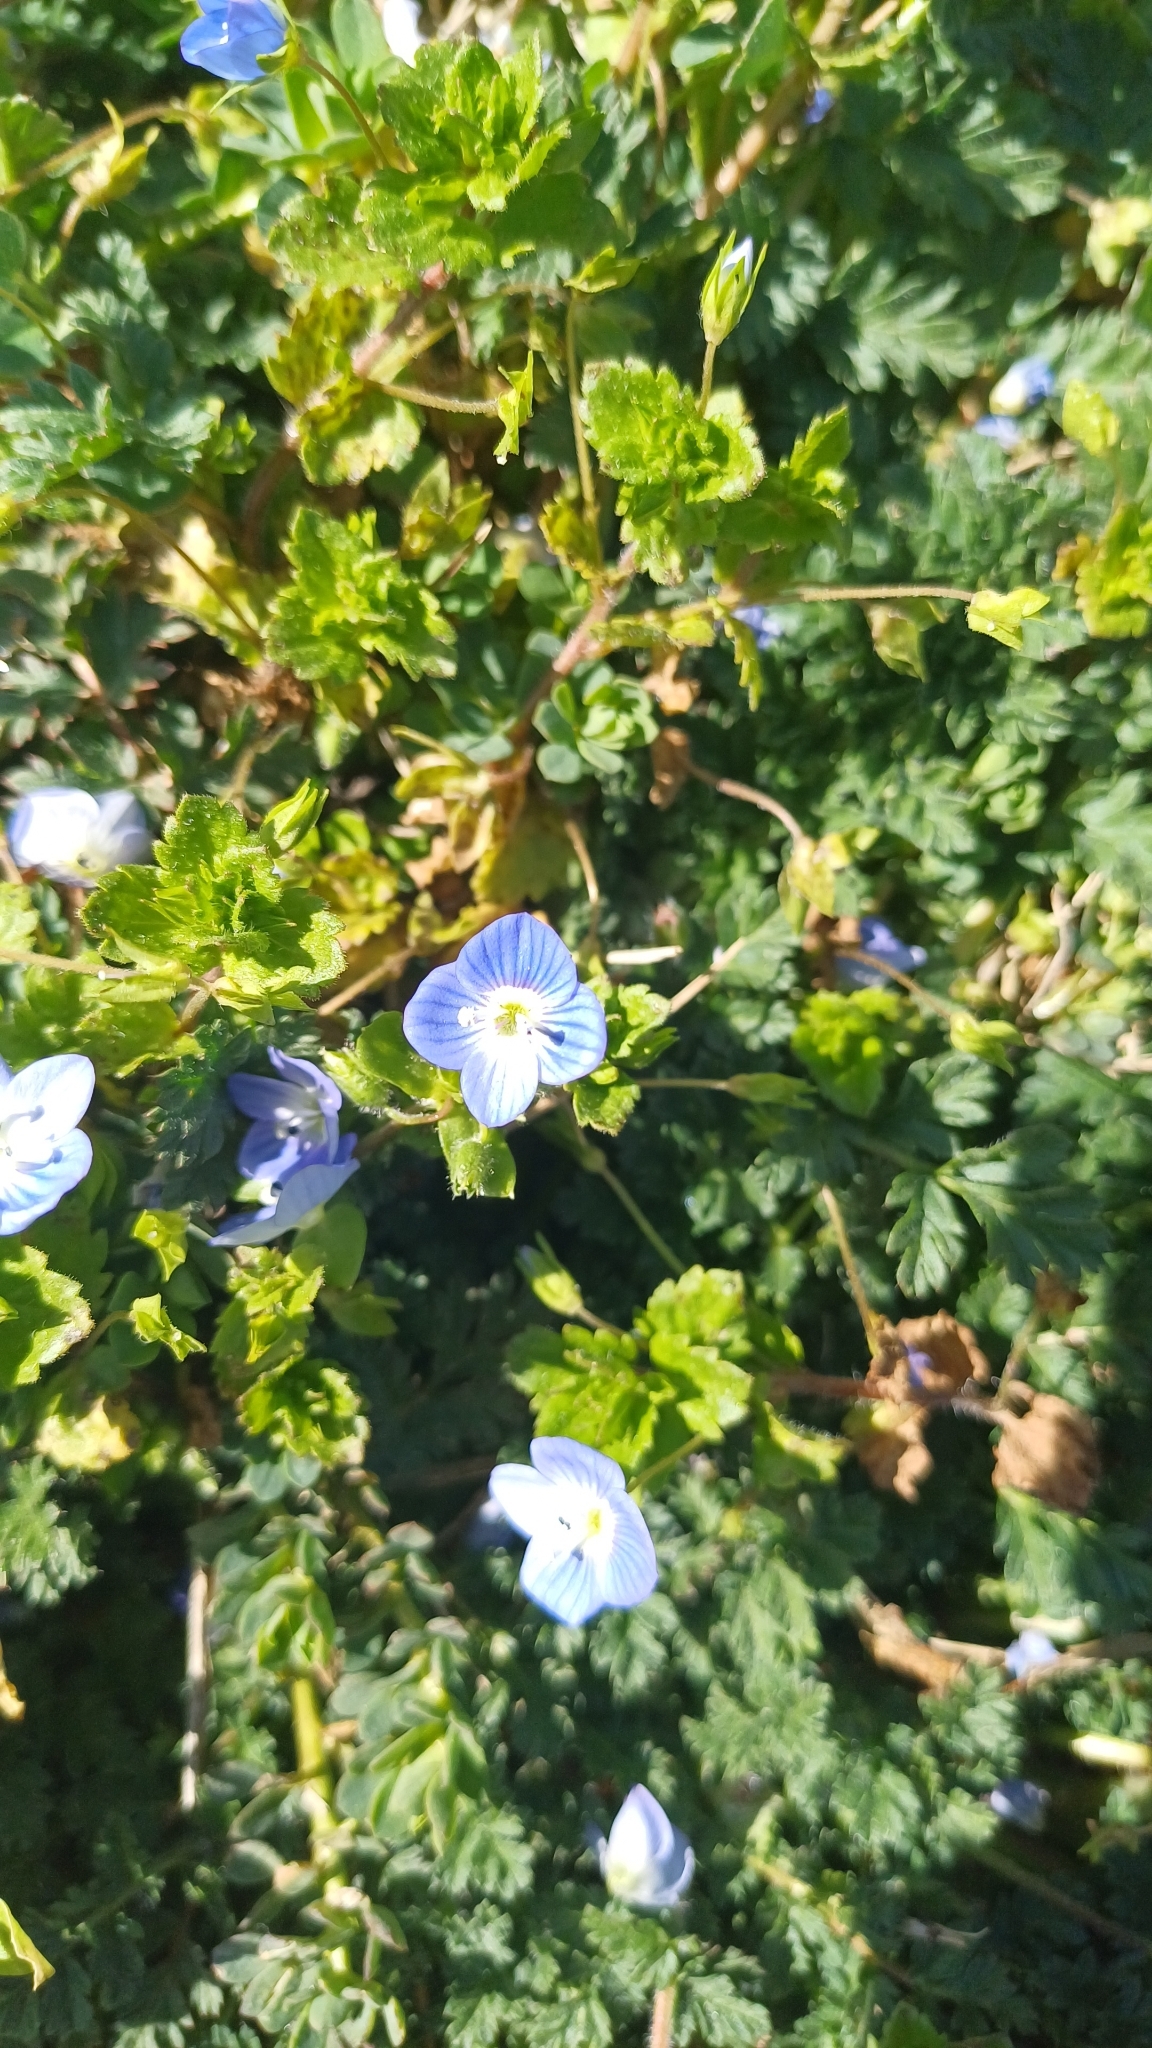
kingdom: Plantae
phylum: Tracheophyta
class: Magnoliopsida
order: Lamiales
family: Plantaginaceae
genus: Veronica
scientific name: Veronica persica
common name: Common field-speedwell
